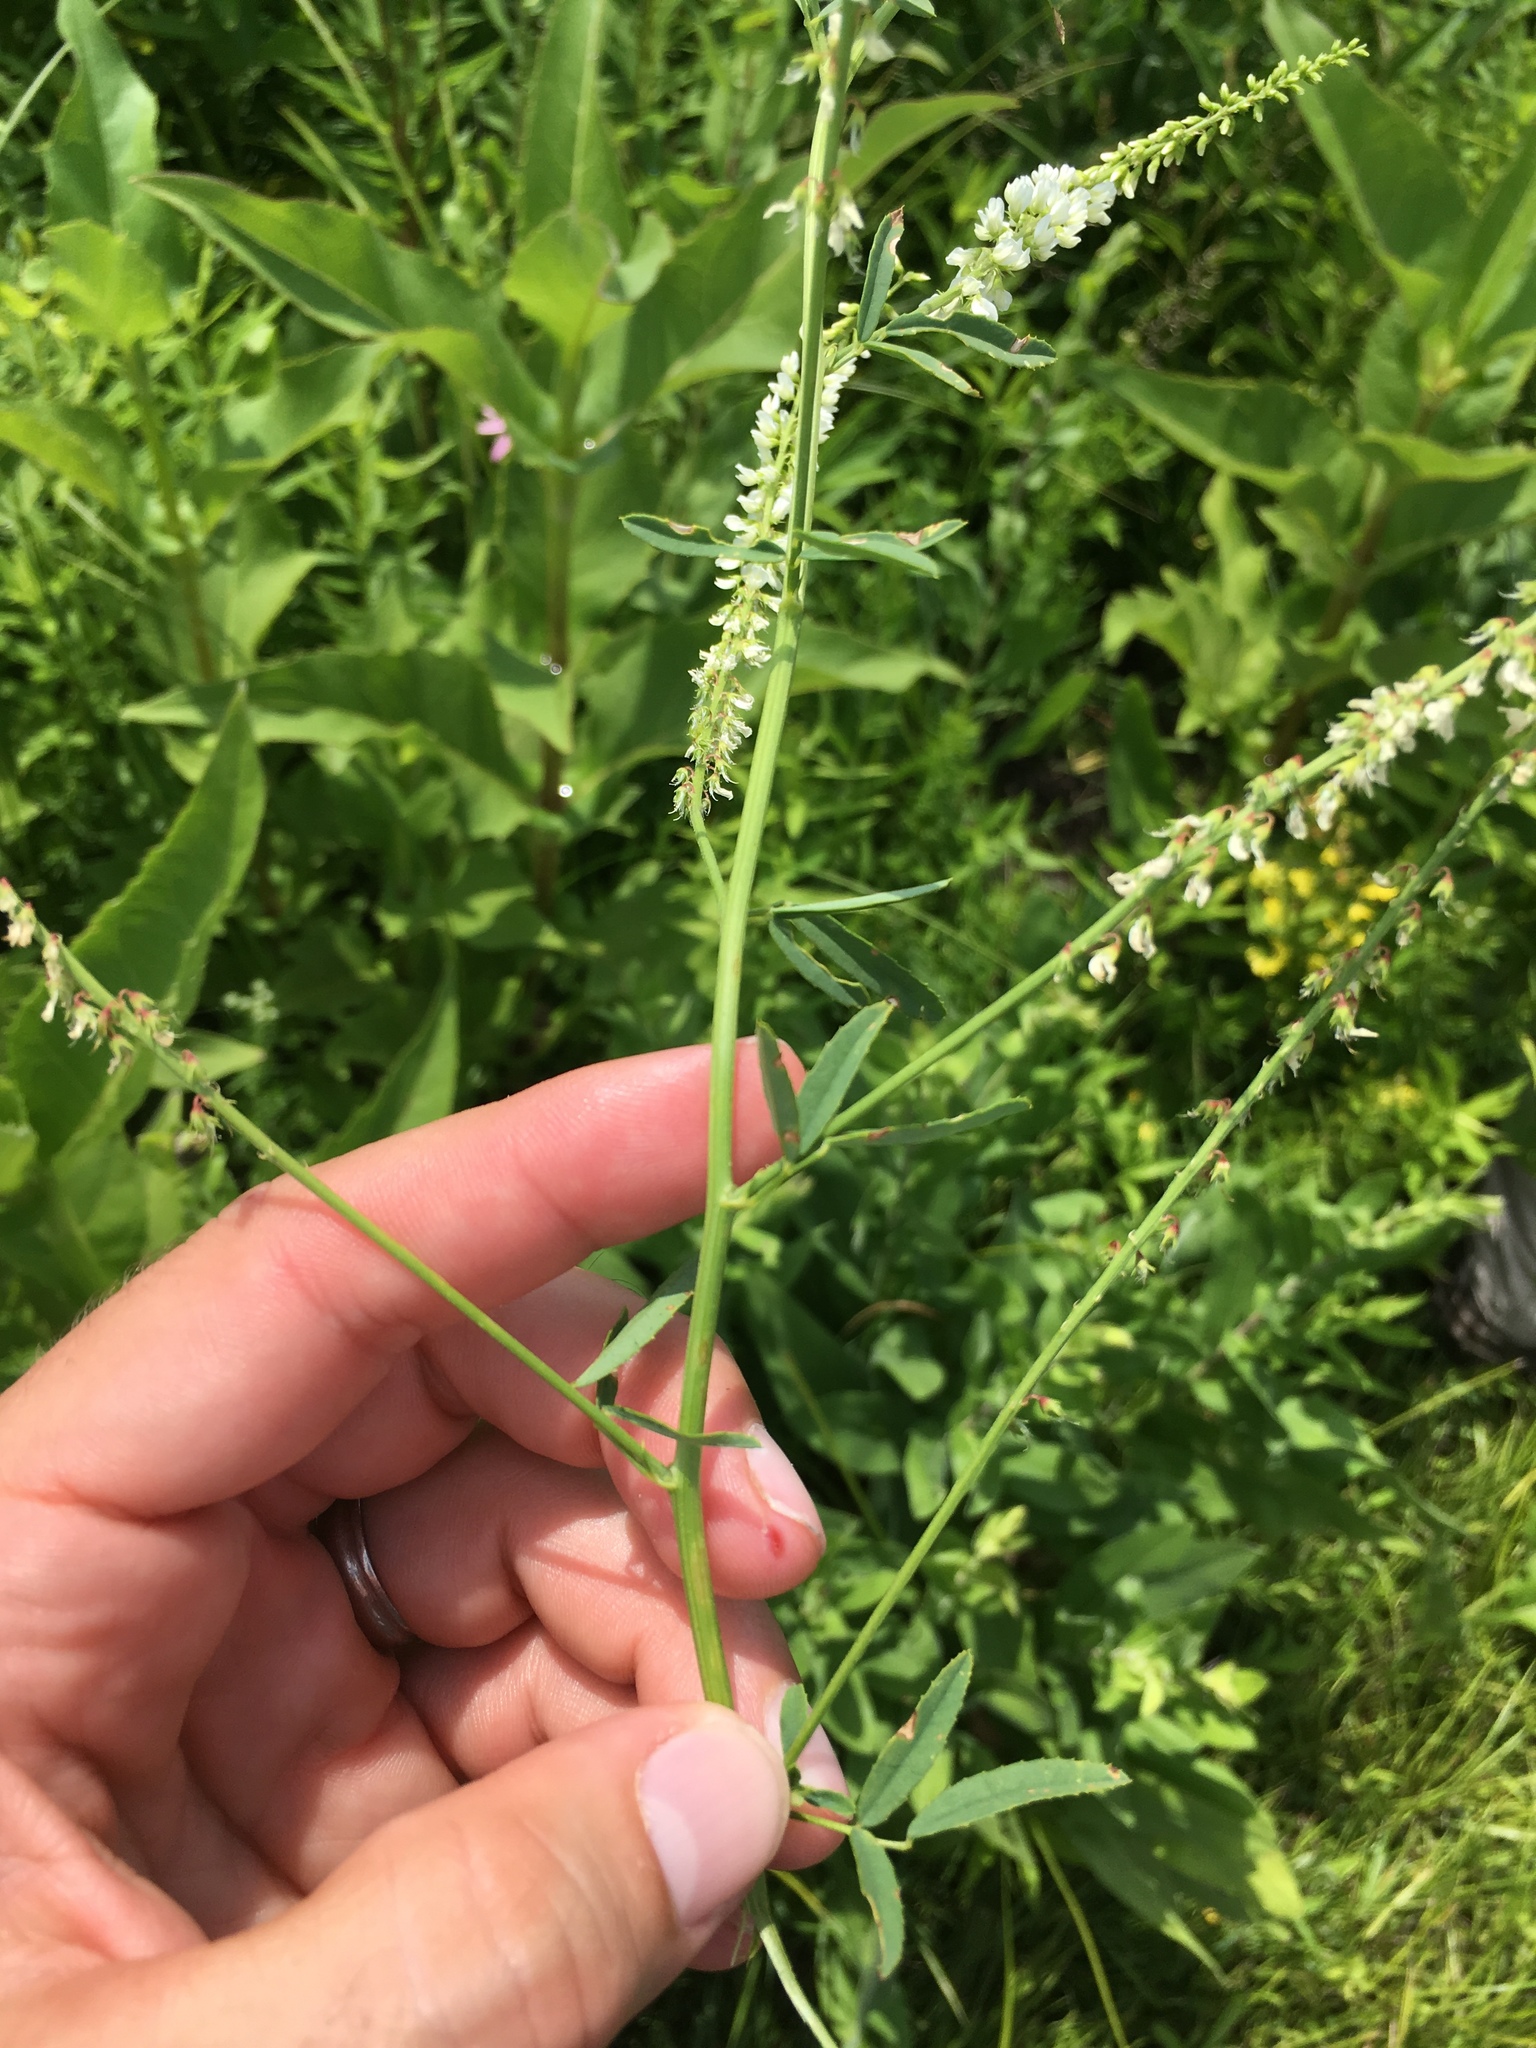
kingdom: Plantae
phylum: Tracheophyta
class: Magnoliopsida
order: Fabales
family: Fabaceae
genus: Melilotus
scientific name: Melilotus albus
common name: White melilot
